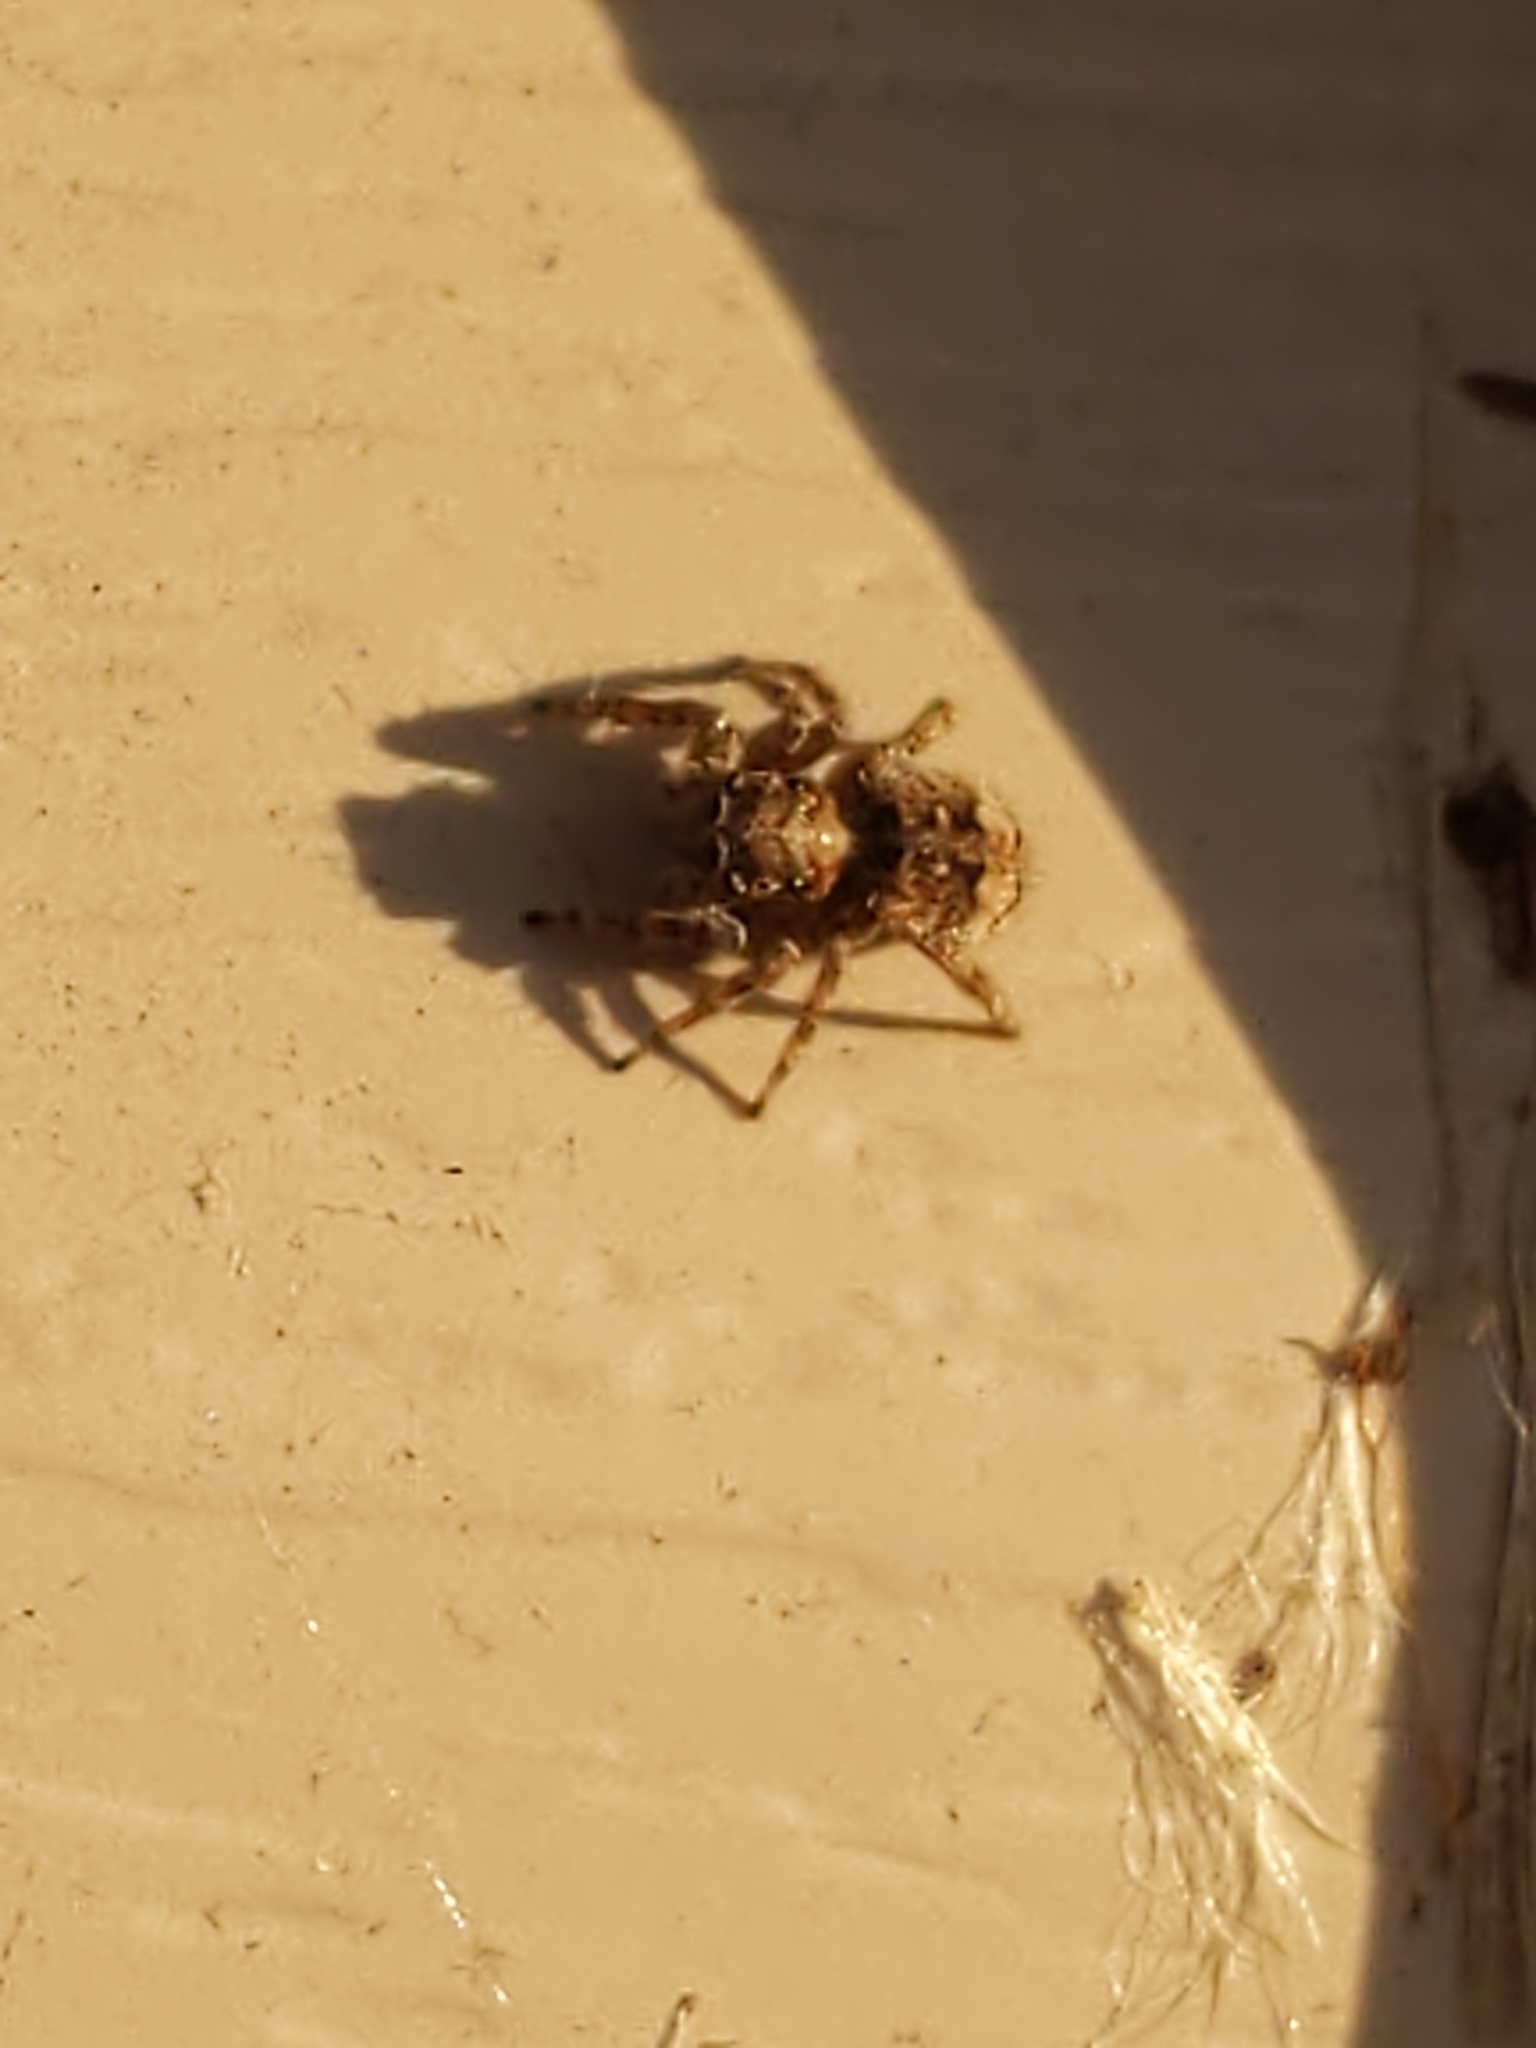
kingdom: Animalia
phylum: Arthropoda
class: Arachnida
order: Araneae
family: Salticidae
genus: Attulus
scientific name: Attulus fasciger
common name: Asiatic wall jumping spider
